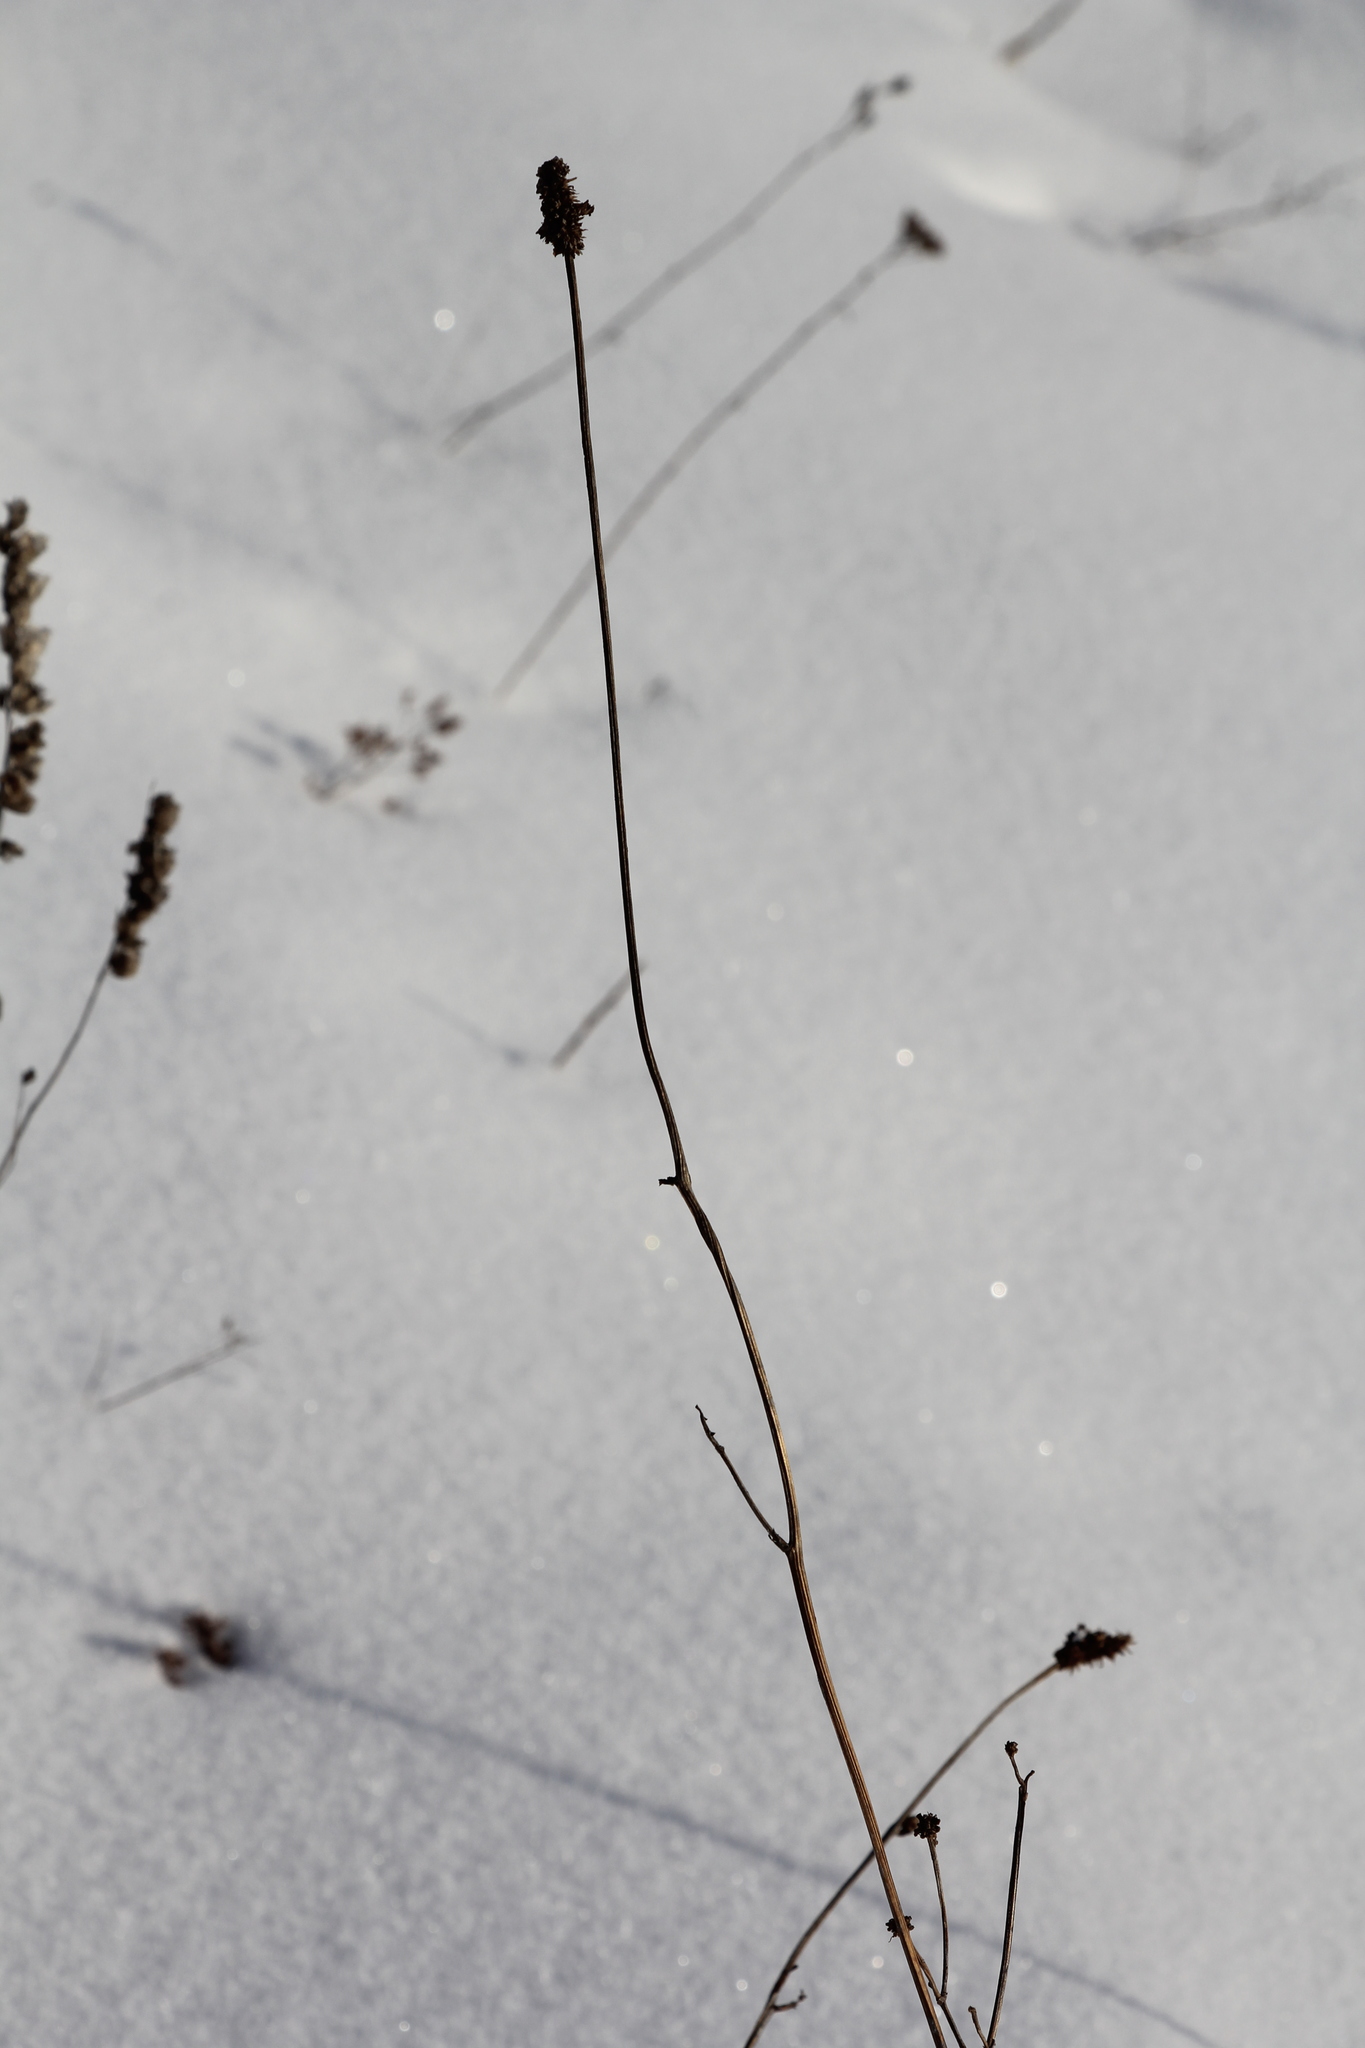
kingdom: Plantae
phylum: Tracheophyta
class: Magnoliopsida
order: Rosales
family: Rosaceae
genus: Sanguisorba
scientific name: Sanguisorba officinalis
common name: Great burnet
